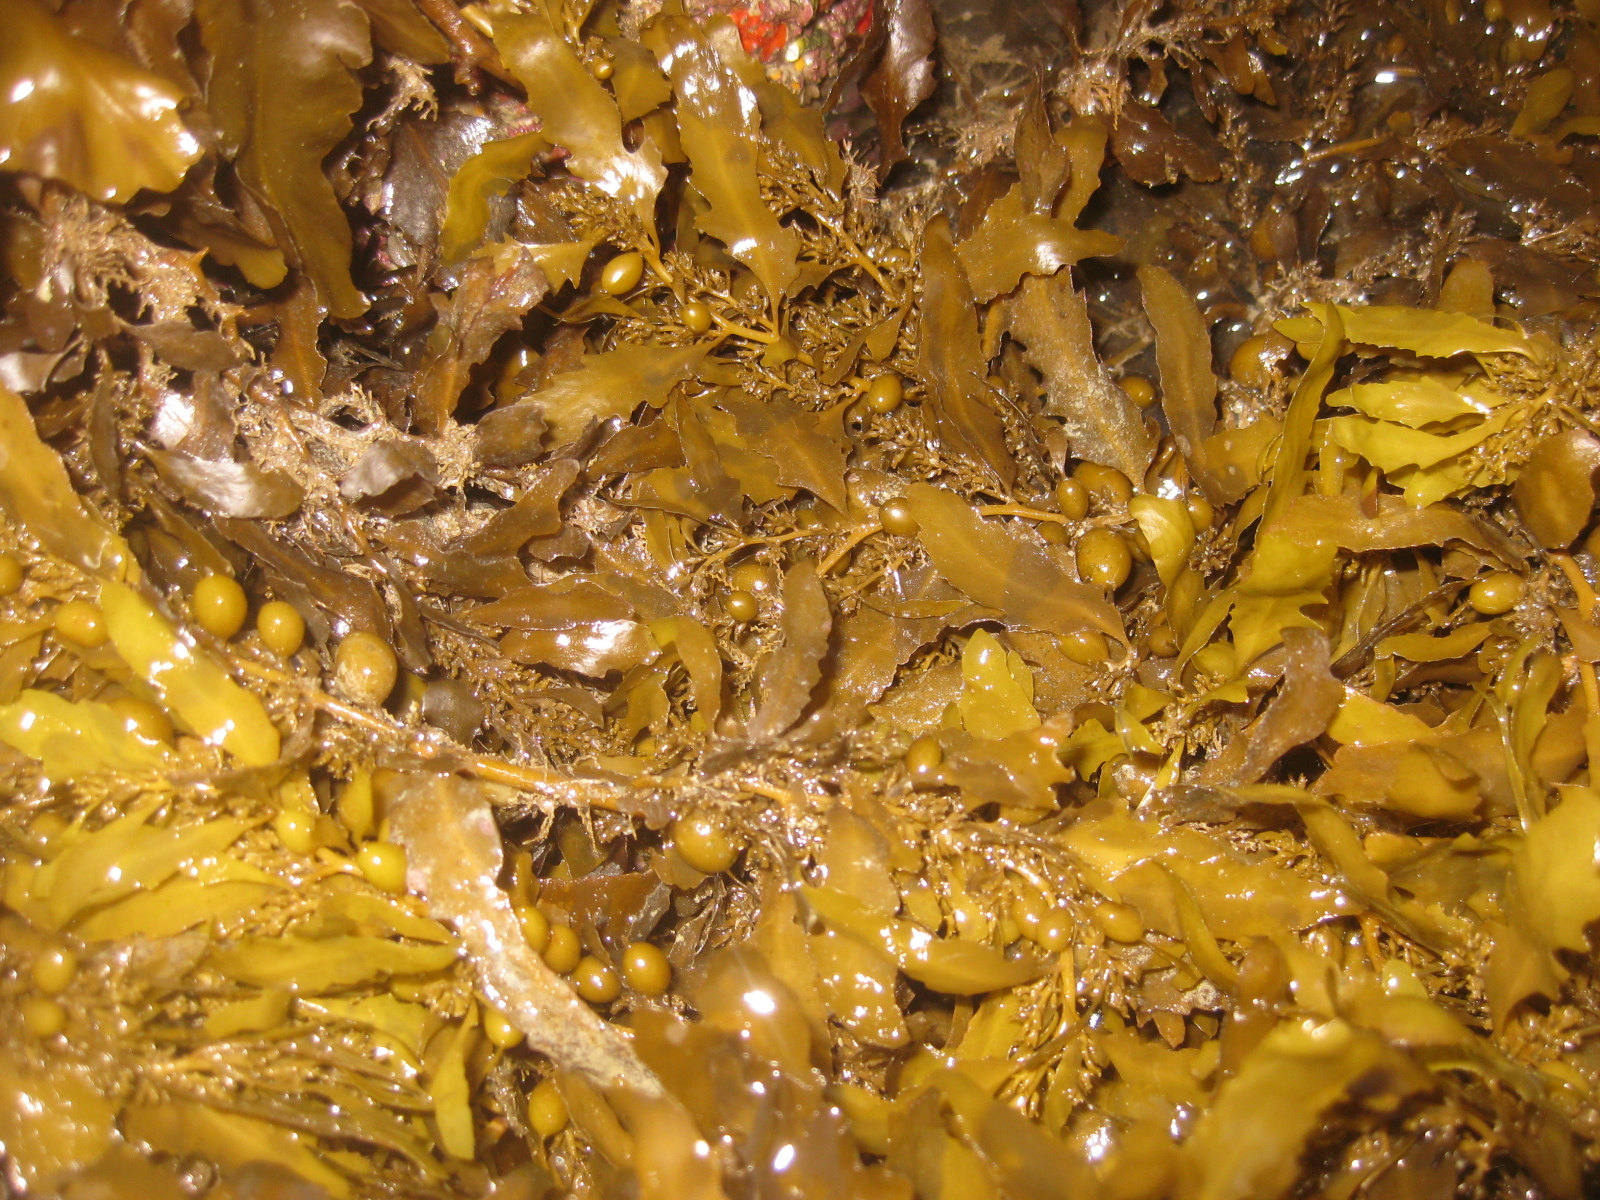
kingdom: Chromista
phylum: Ochrophyta
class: Phaeophyceae
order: Fucales
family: Sargassaceae
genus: Sargassum
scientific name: Sargassum sinclairii
